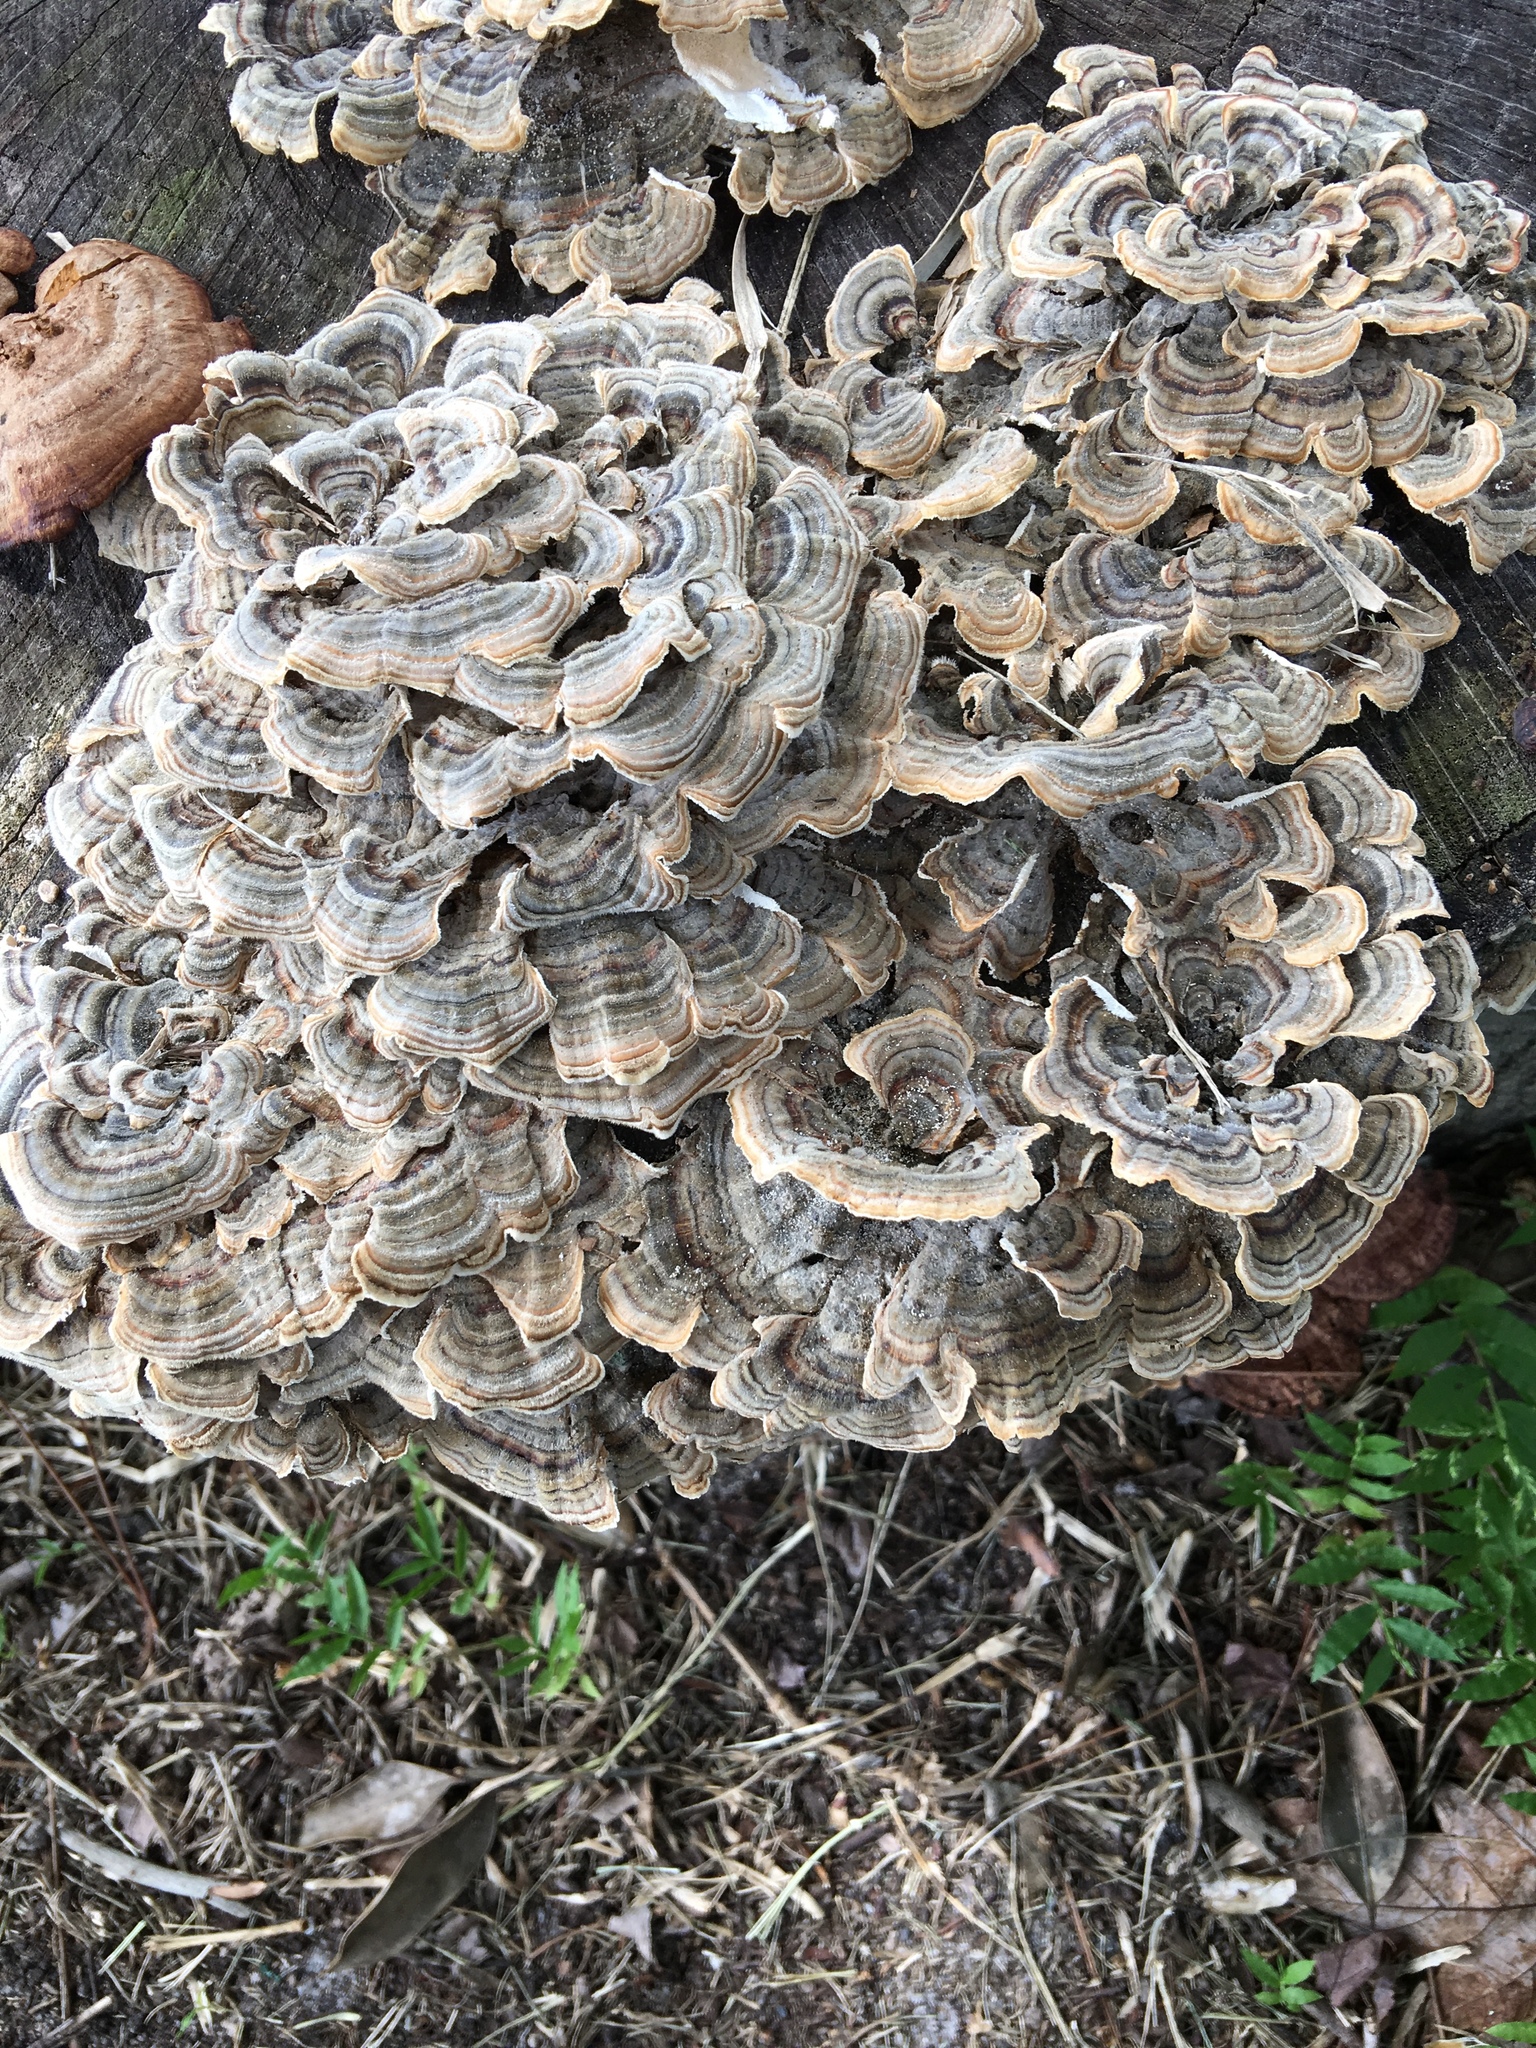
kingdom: Fungi
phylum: Basidiomycota
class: Agaricomycetes
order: Polyporales
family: Polyporaceae
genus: Trametes
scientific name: Trametes versicolor
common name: Turkeytail
